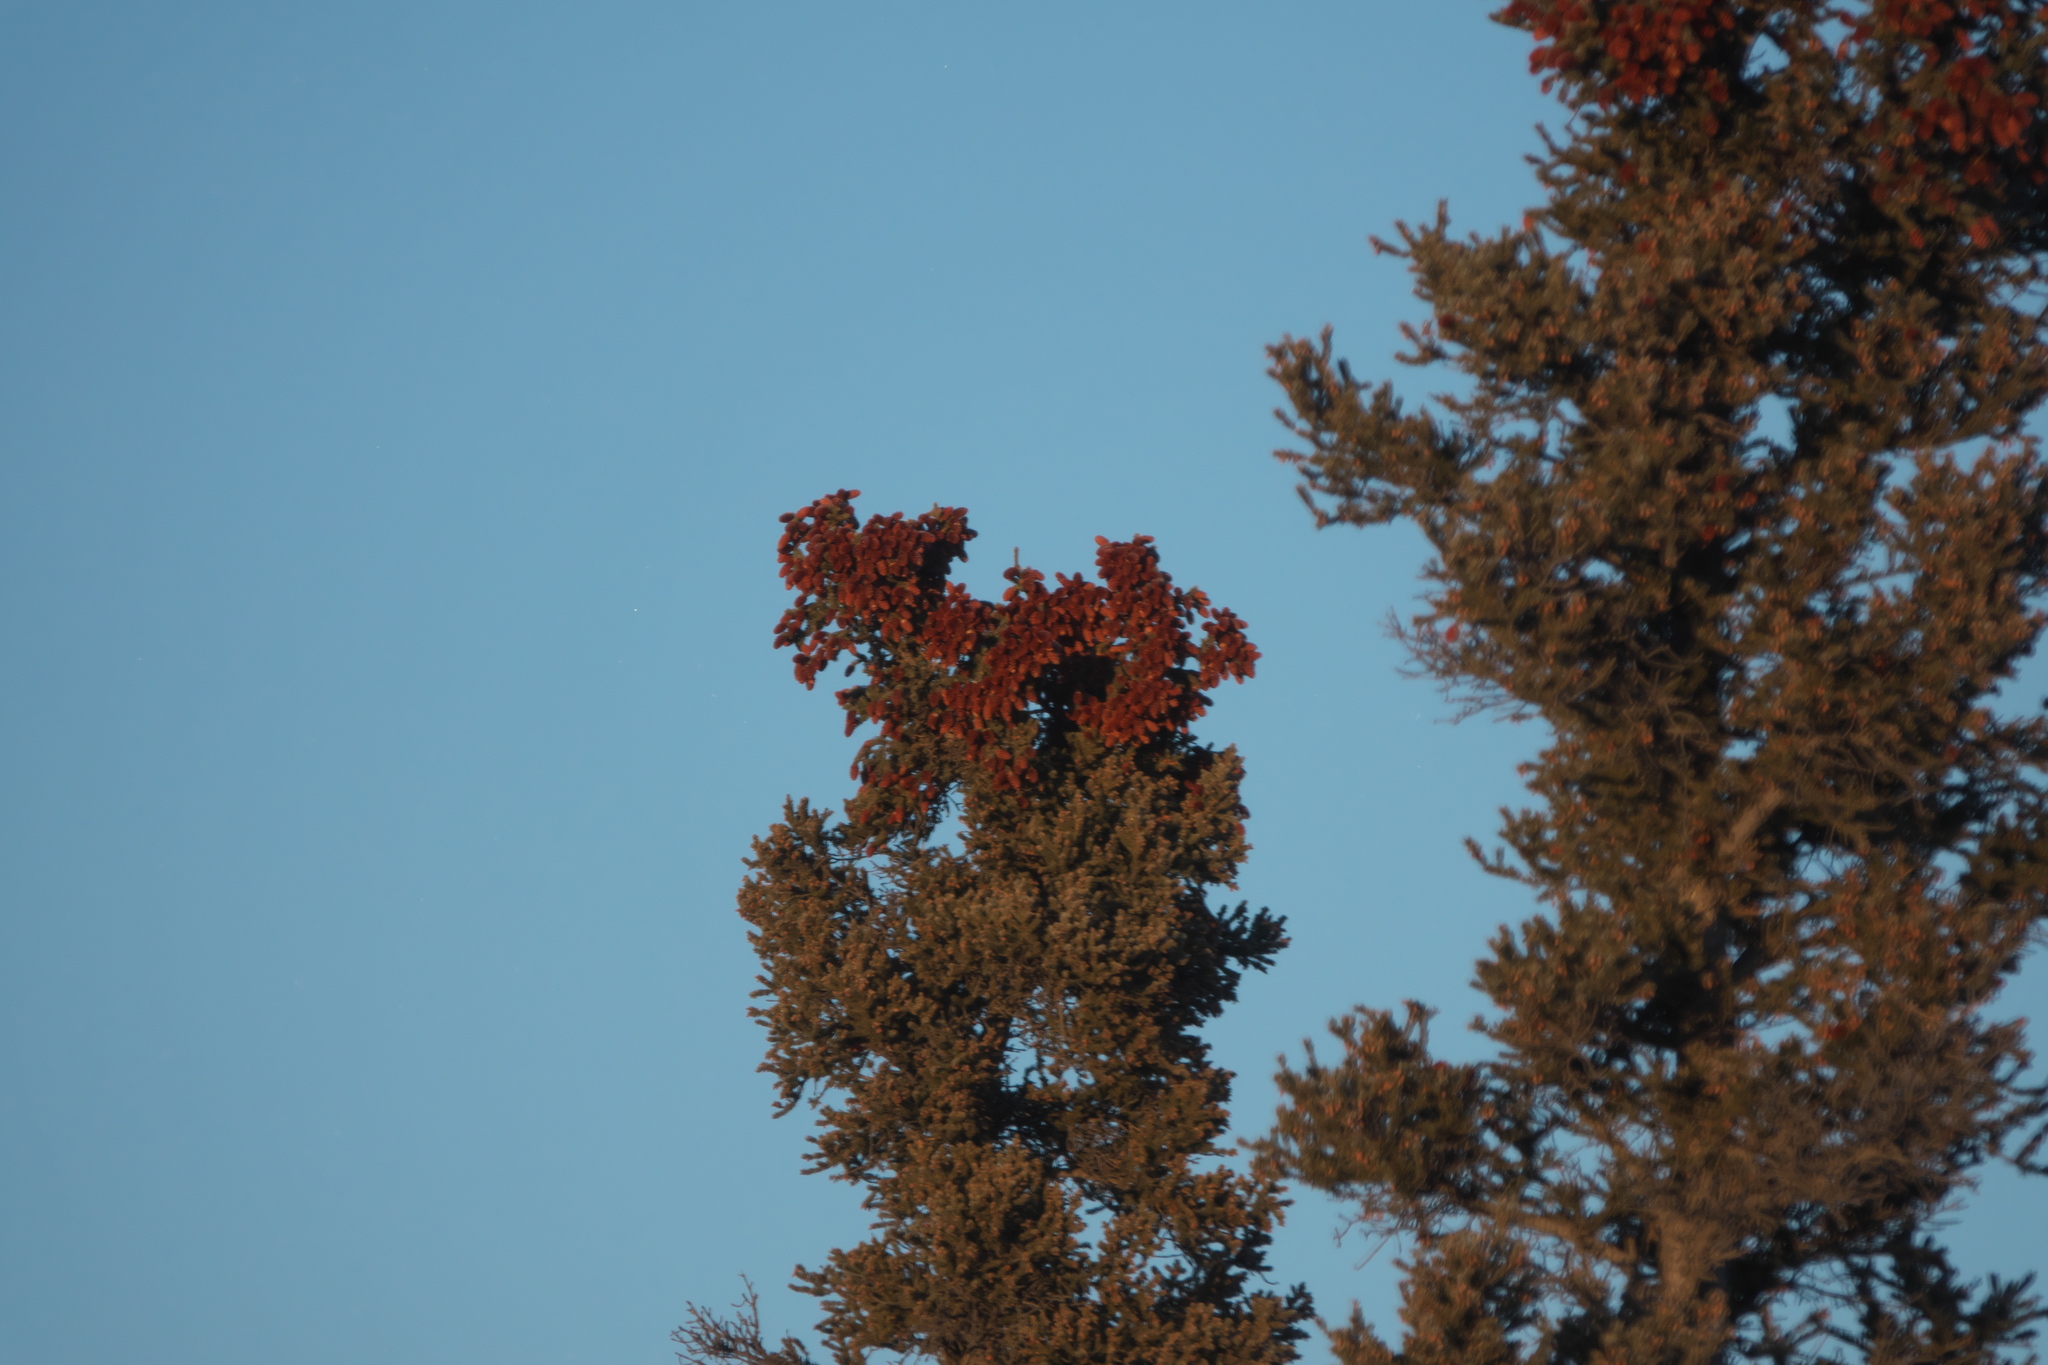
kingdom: Plantae
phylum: Tracheophyta
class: Pinopsida
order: Pinales
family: Pinaceae
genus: Picea
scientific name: Picea glauca
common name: White spruce
